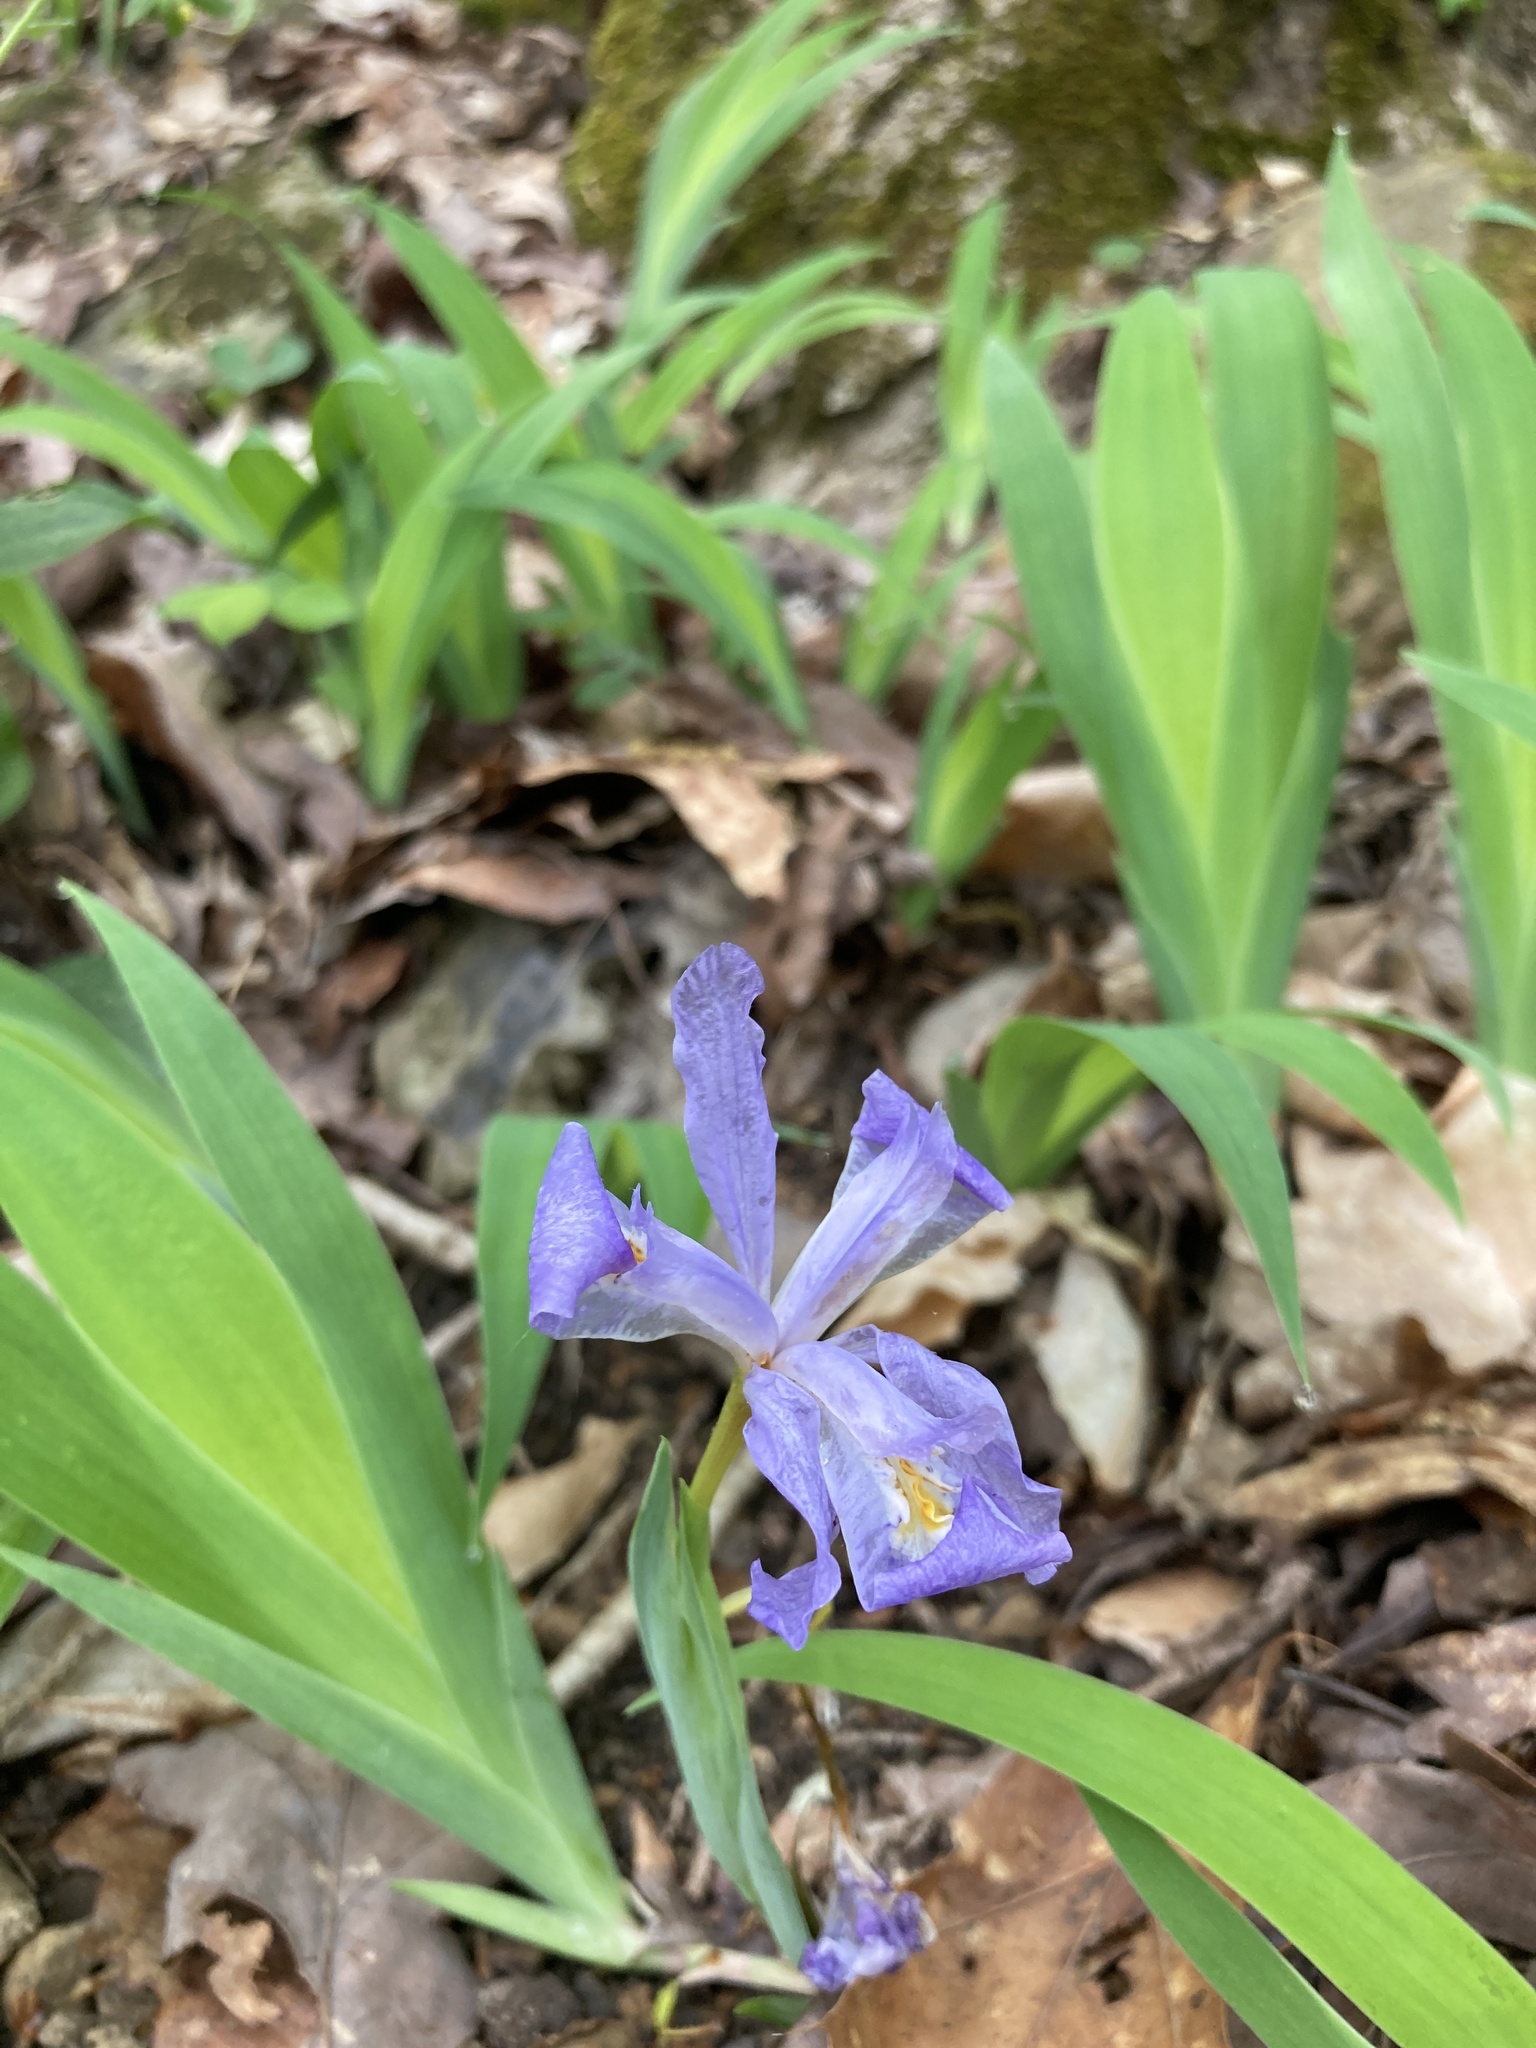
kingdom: Plantae
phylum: Tracheophyta
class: Liliopsida
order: Asparagales
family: Iridaceae
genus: Iris
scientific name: Iris cristata
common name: Crested iris
